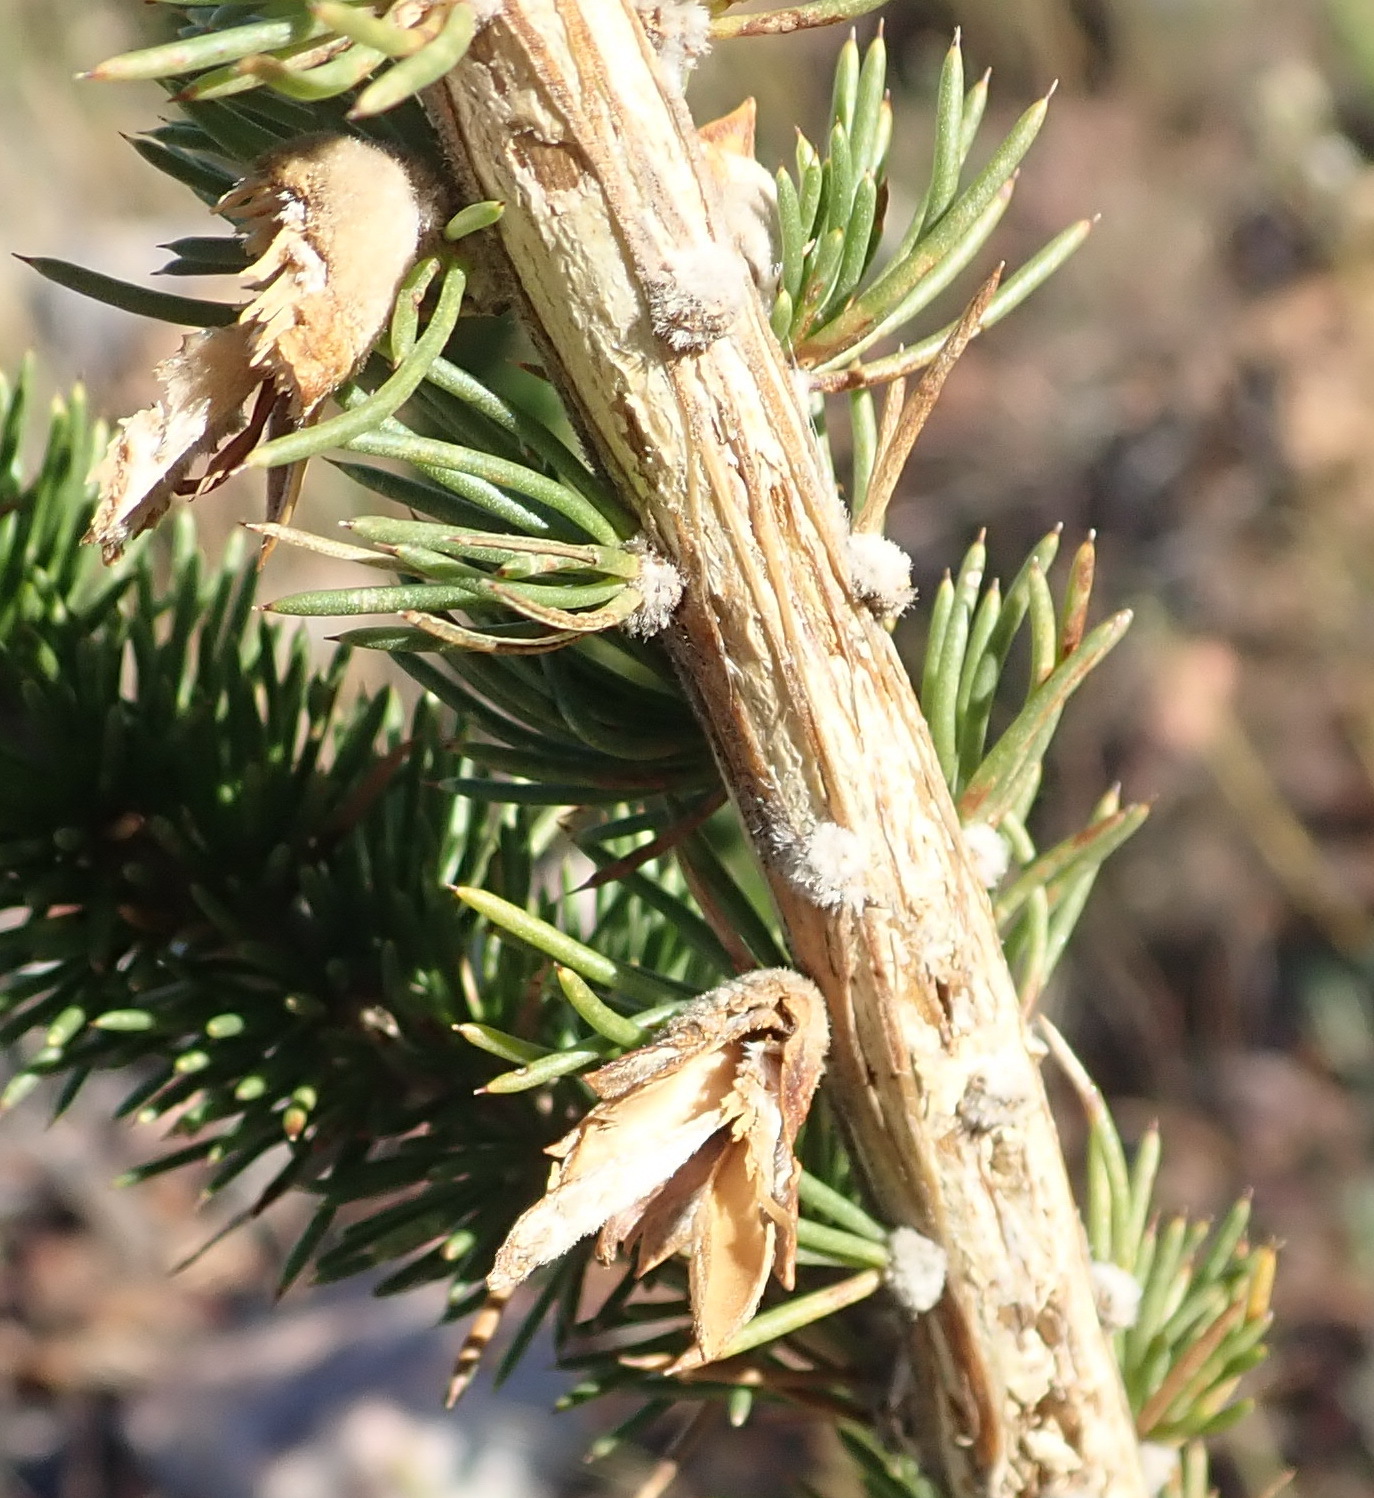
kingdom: Plantae
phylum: Tracheophyta
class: Magnoliopsida
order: Fabales
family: Fabaceae
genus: Aspalathus
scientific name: Aspalathus sceptrumaureum
